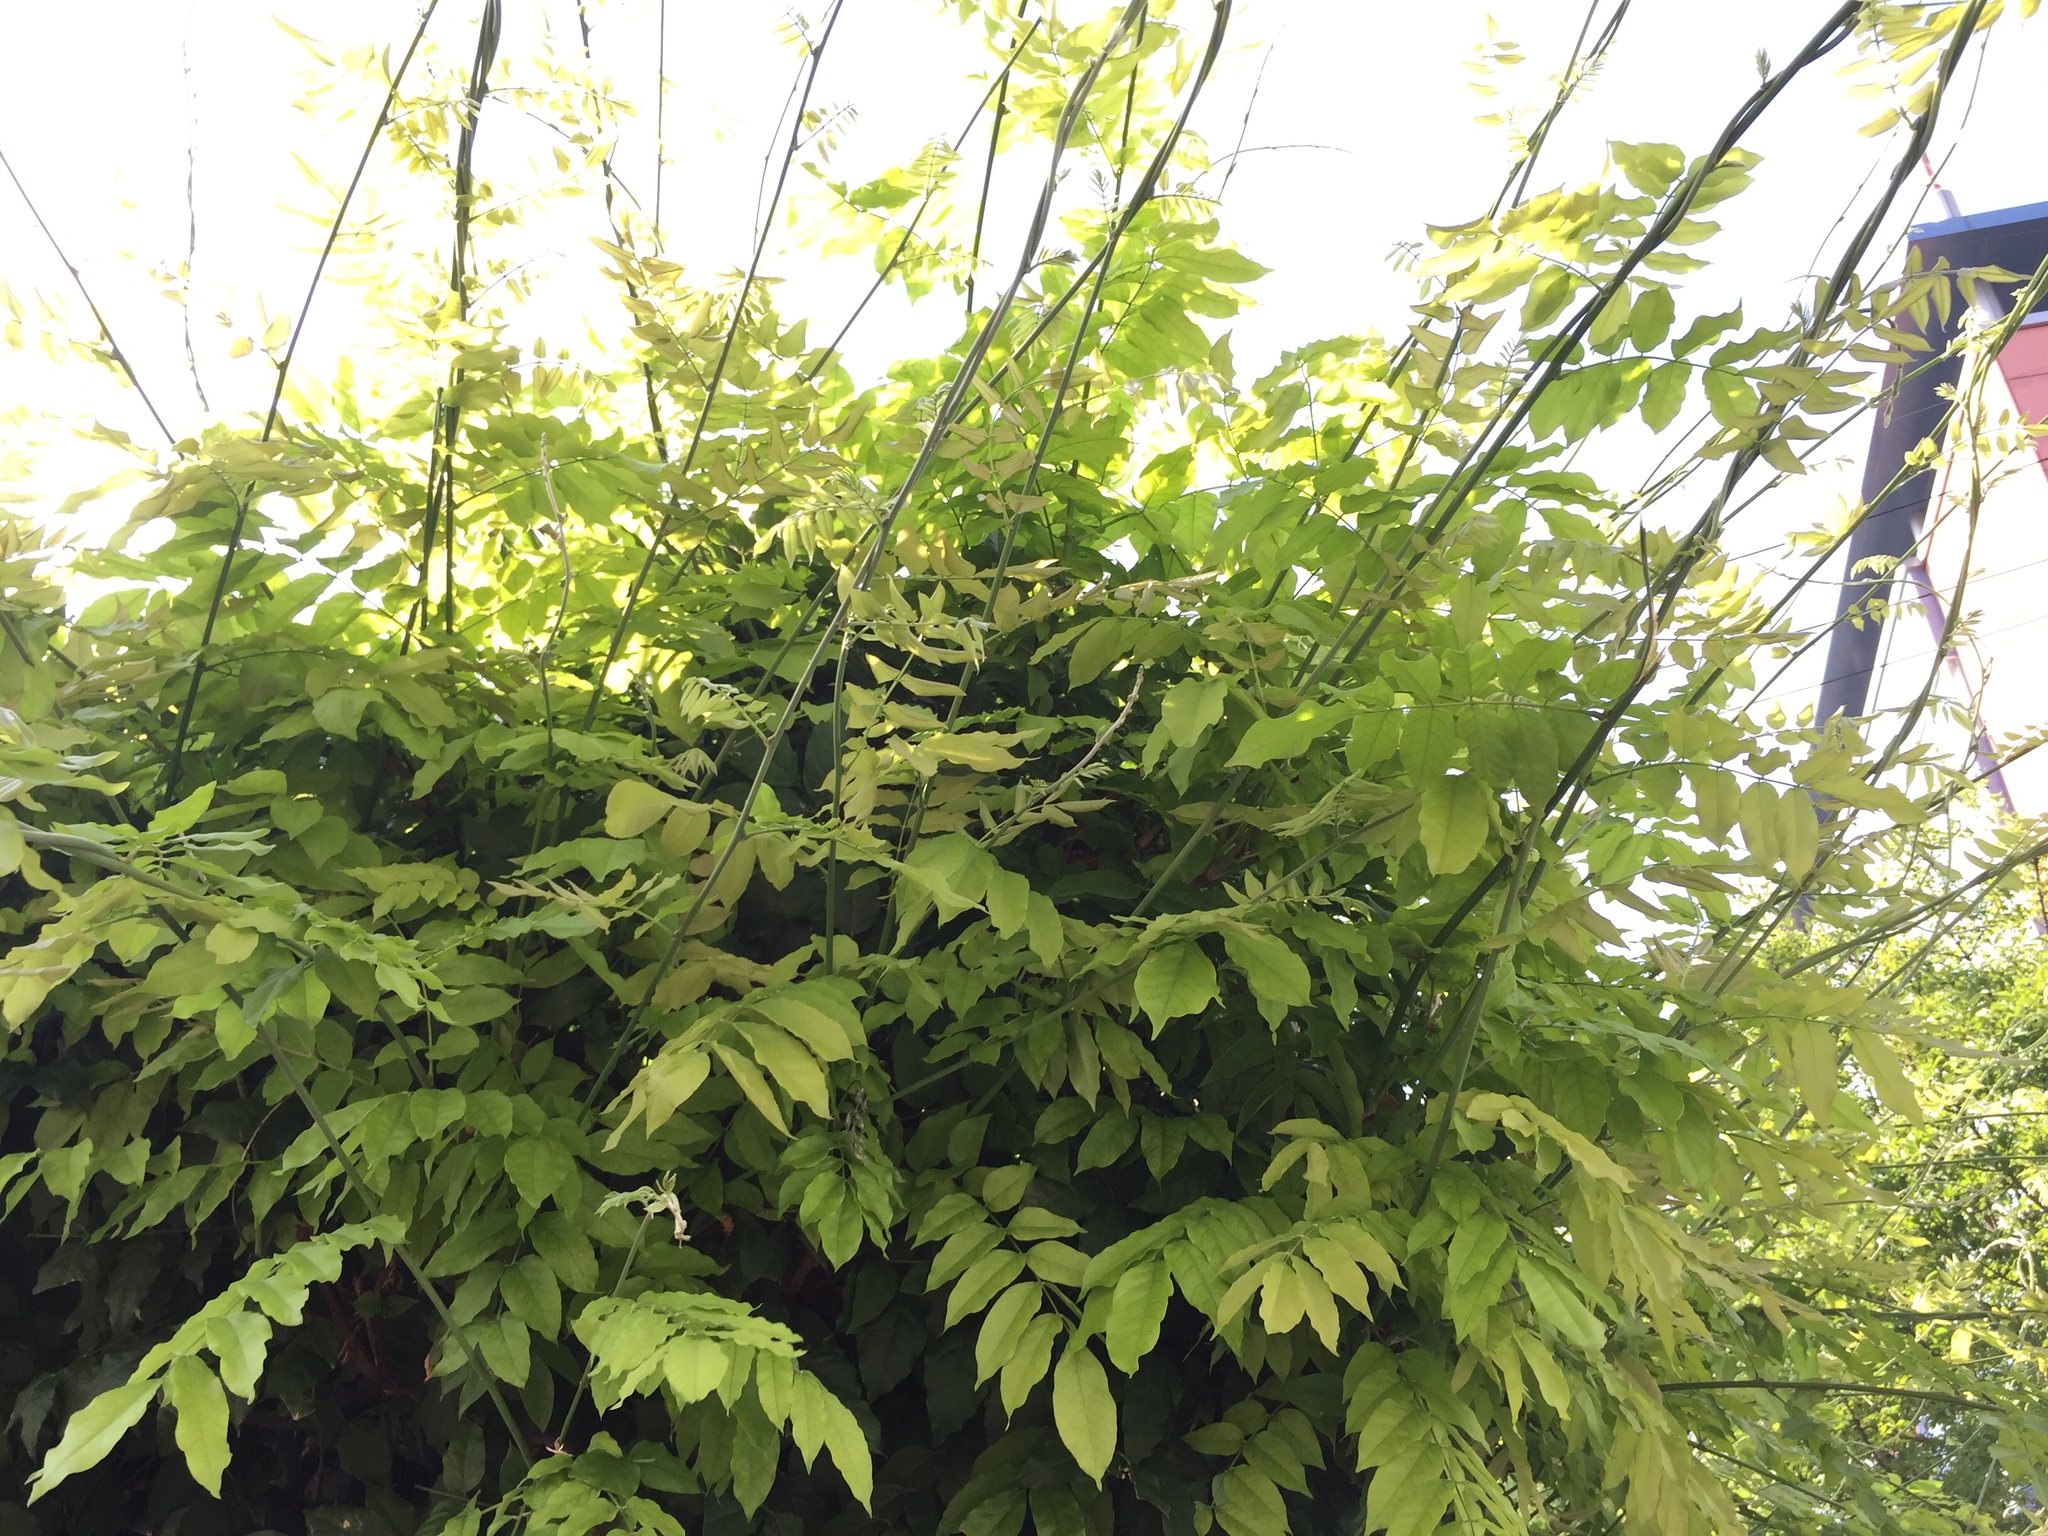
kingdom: Plantae
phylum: Tracheophyta
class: Magnoliopsida
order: Fabales
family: Fabaceae
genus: Wisteria
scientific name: Wisteria floribunda
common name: Japanese wisteria
